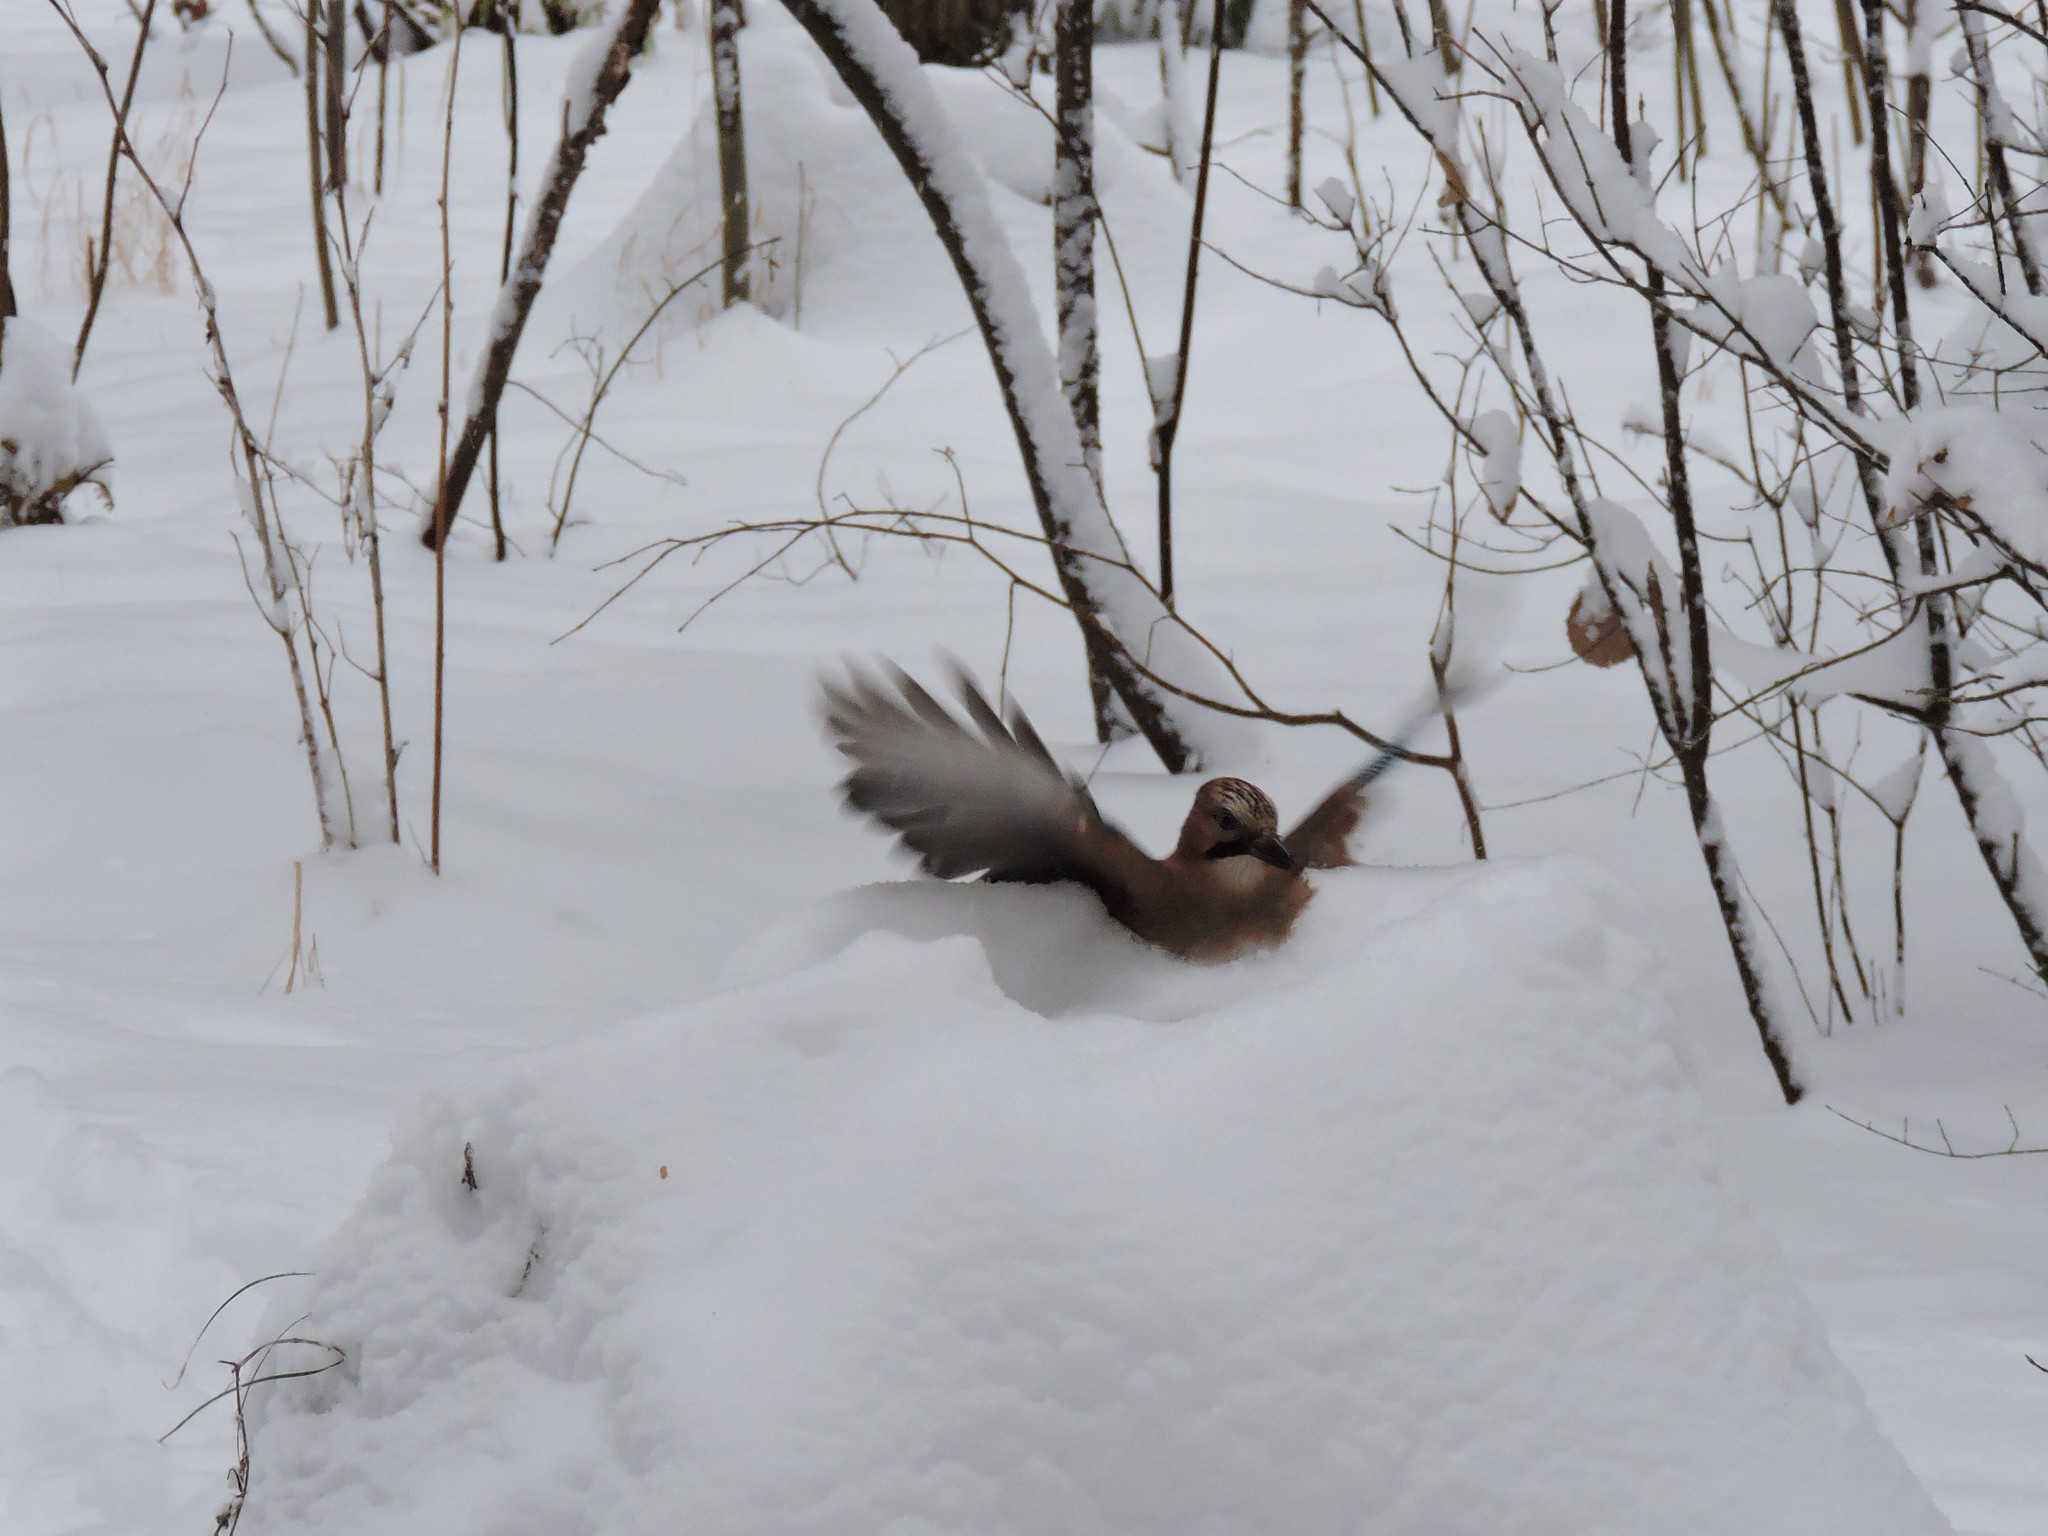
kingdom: Animalia
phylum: Chordata
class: Aves
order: Passeriformes
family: Corvidae
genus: Garrulus
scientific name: Garrulus glandarius
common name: Eurasian jay
